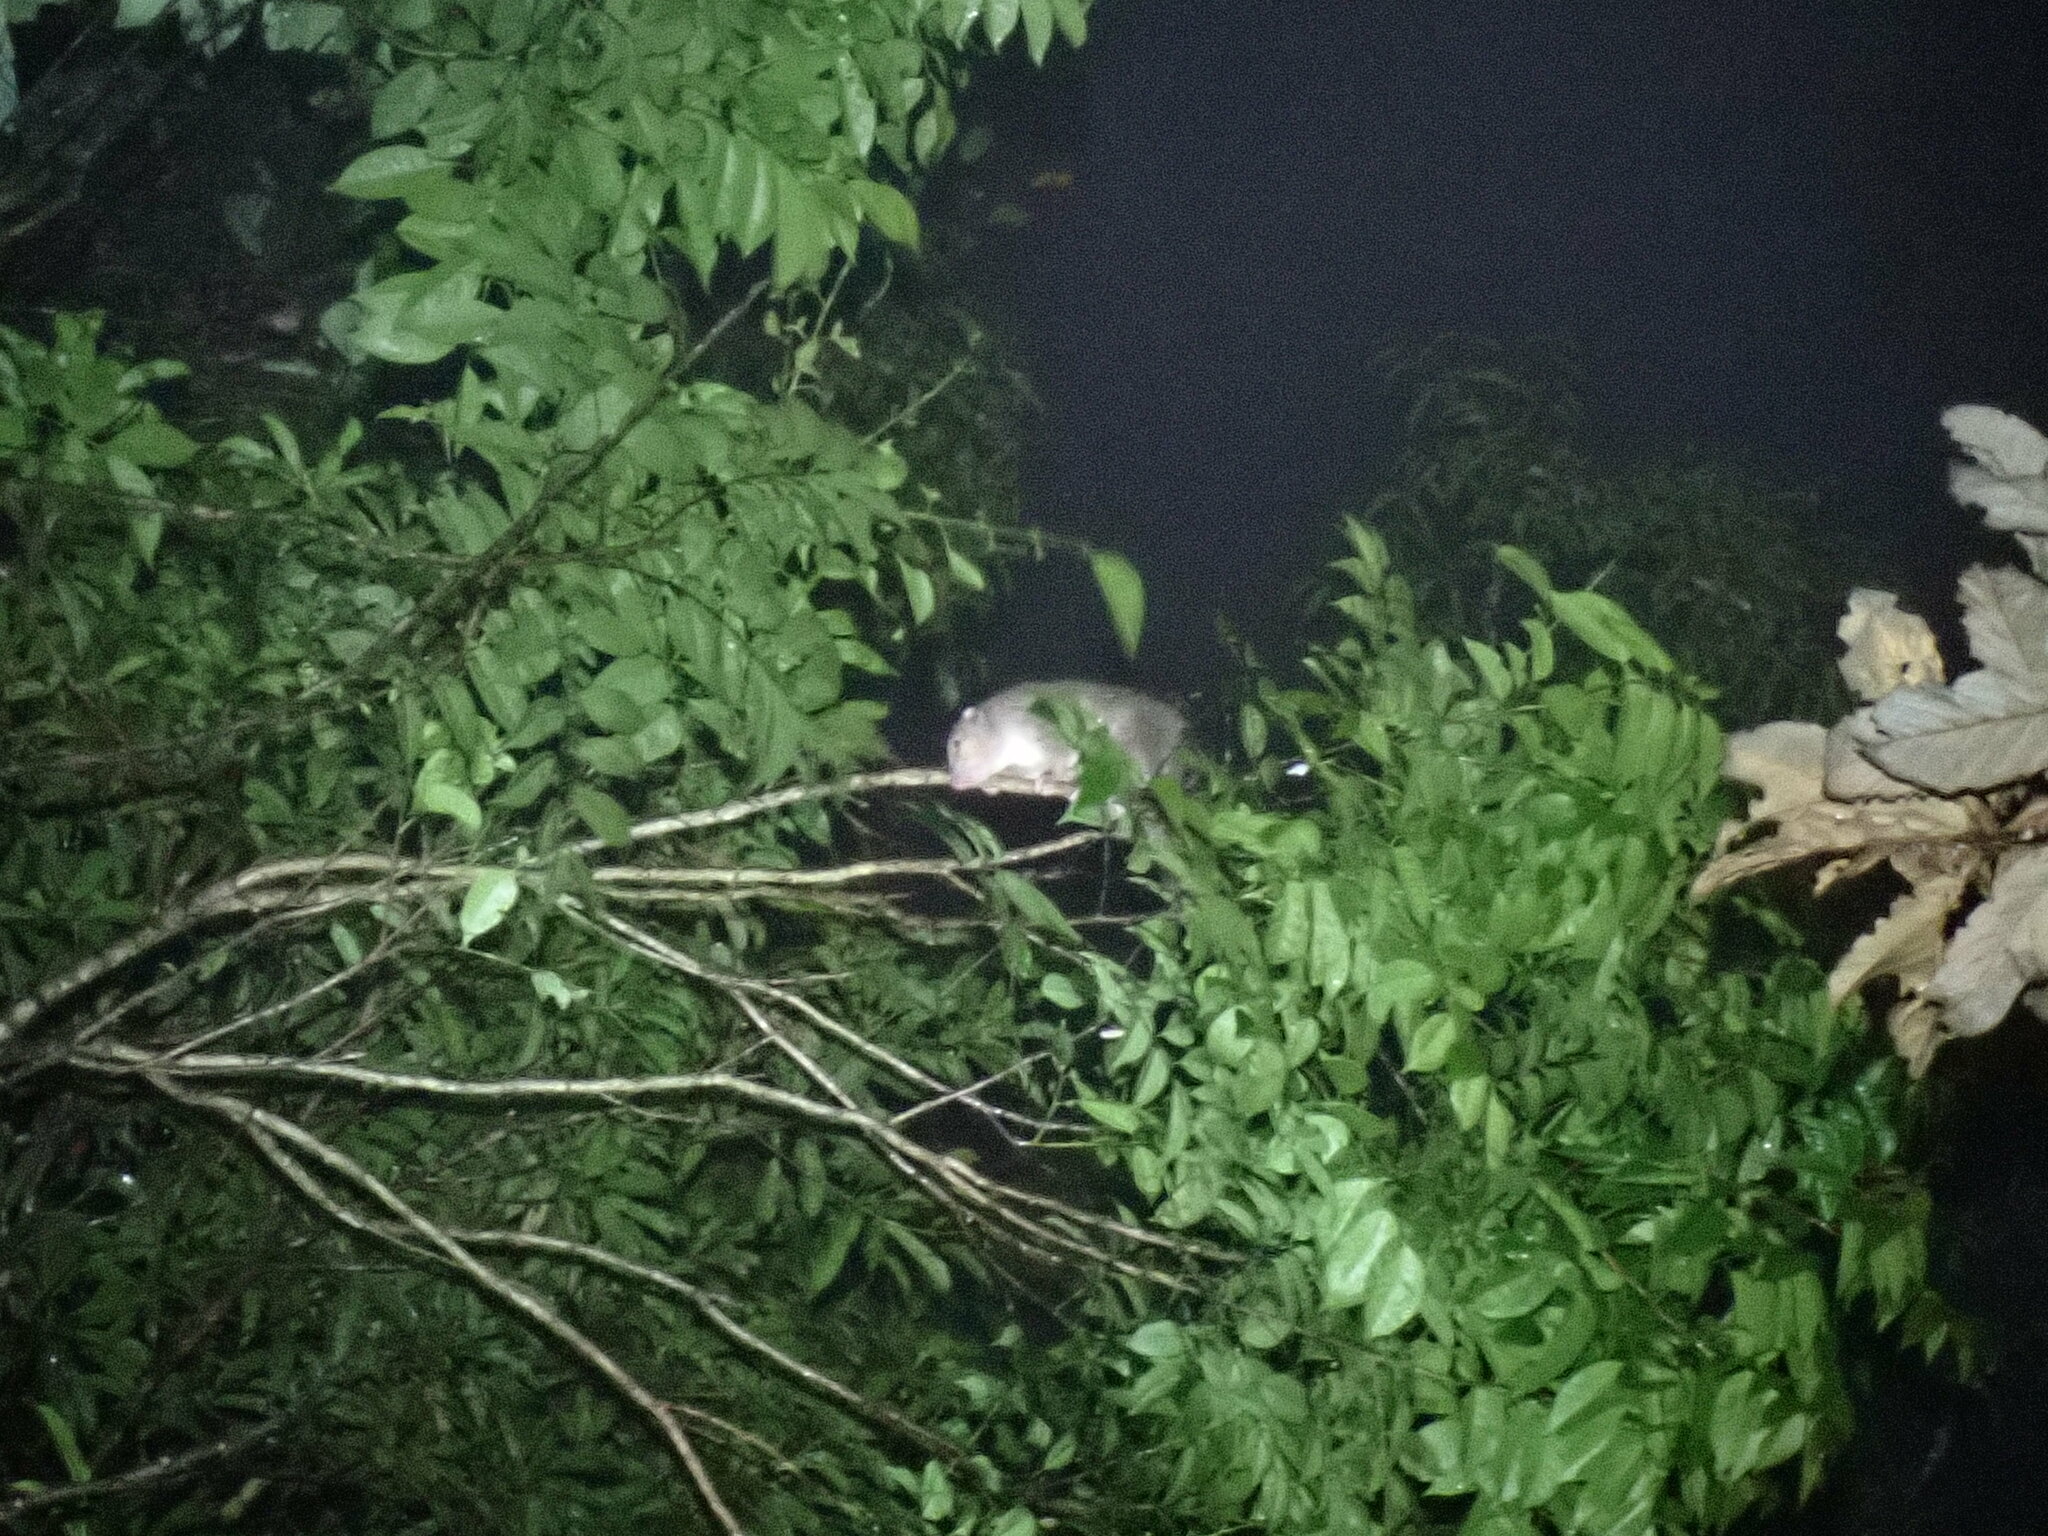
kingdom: Animalia
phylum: Chordata
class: Mammalia
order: Diprotodontia
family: Pseudocheiridae
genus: Pseudochirulus
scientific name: Pseudochirulus cinereus
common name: Cinereous ringtail
